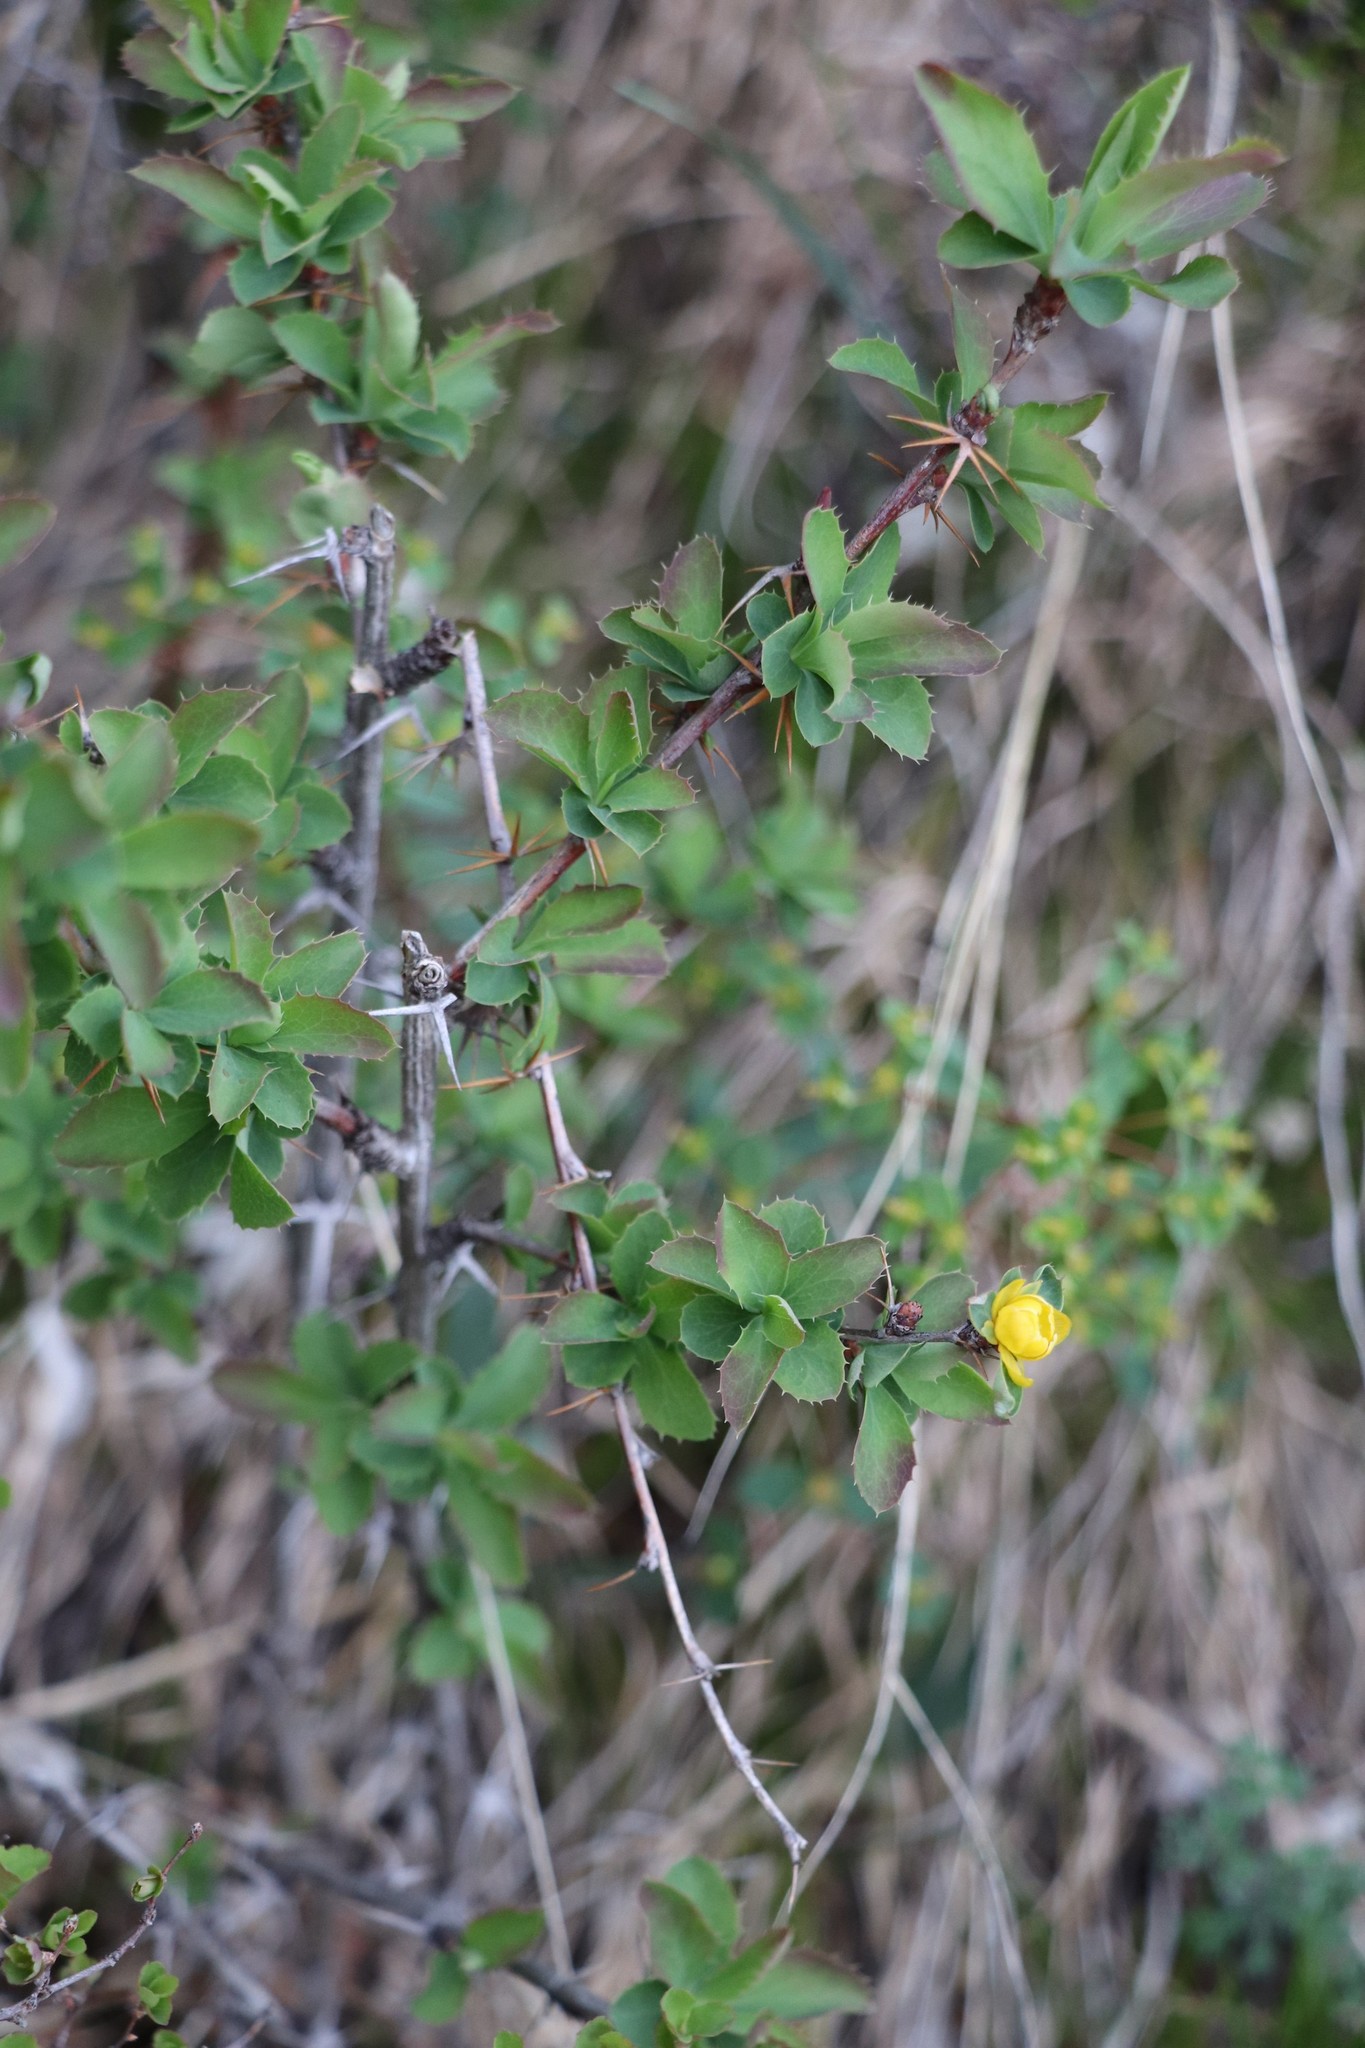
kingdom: Plantae
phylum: Tracheophyta
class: Magnoliopsida
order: Ranunculales
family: Berberidaceae
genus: Berberis
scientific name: Berberis sibirica
